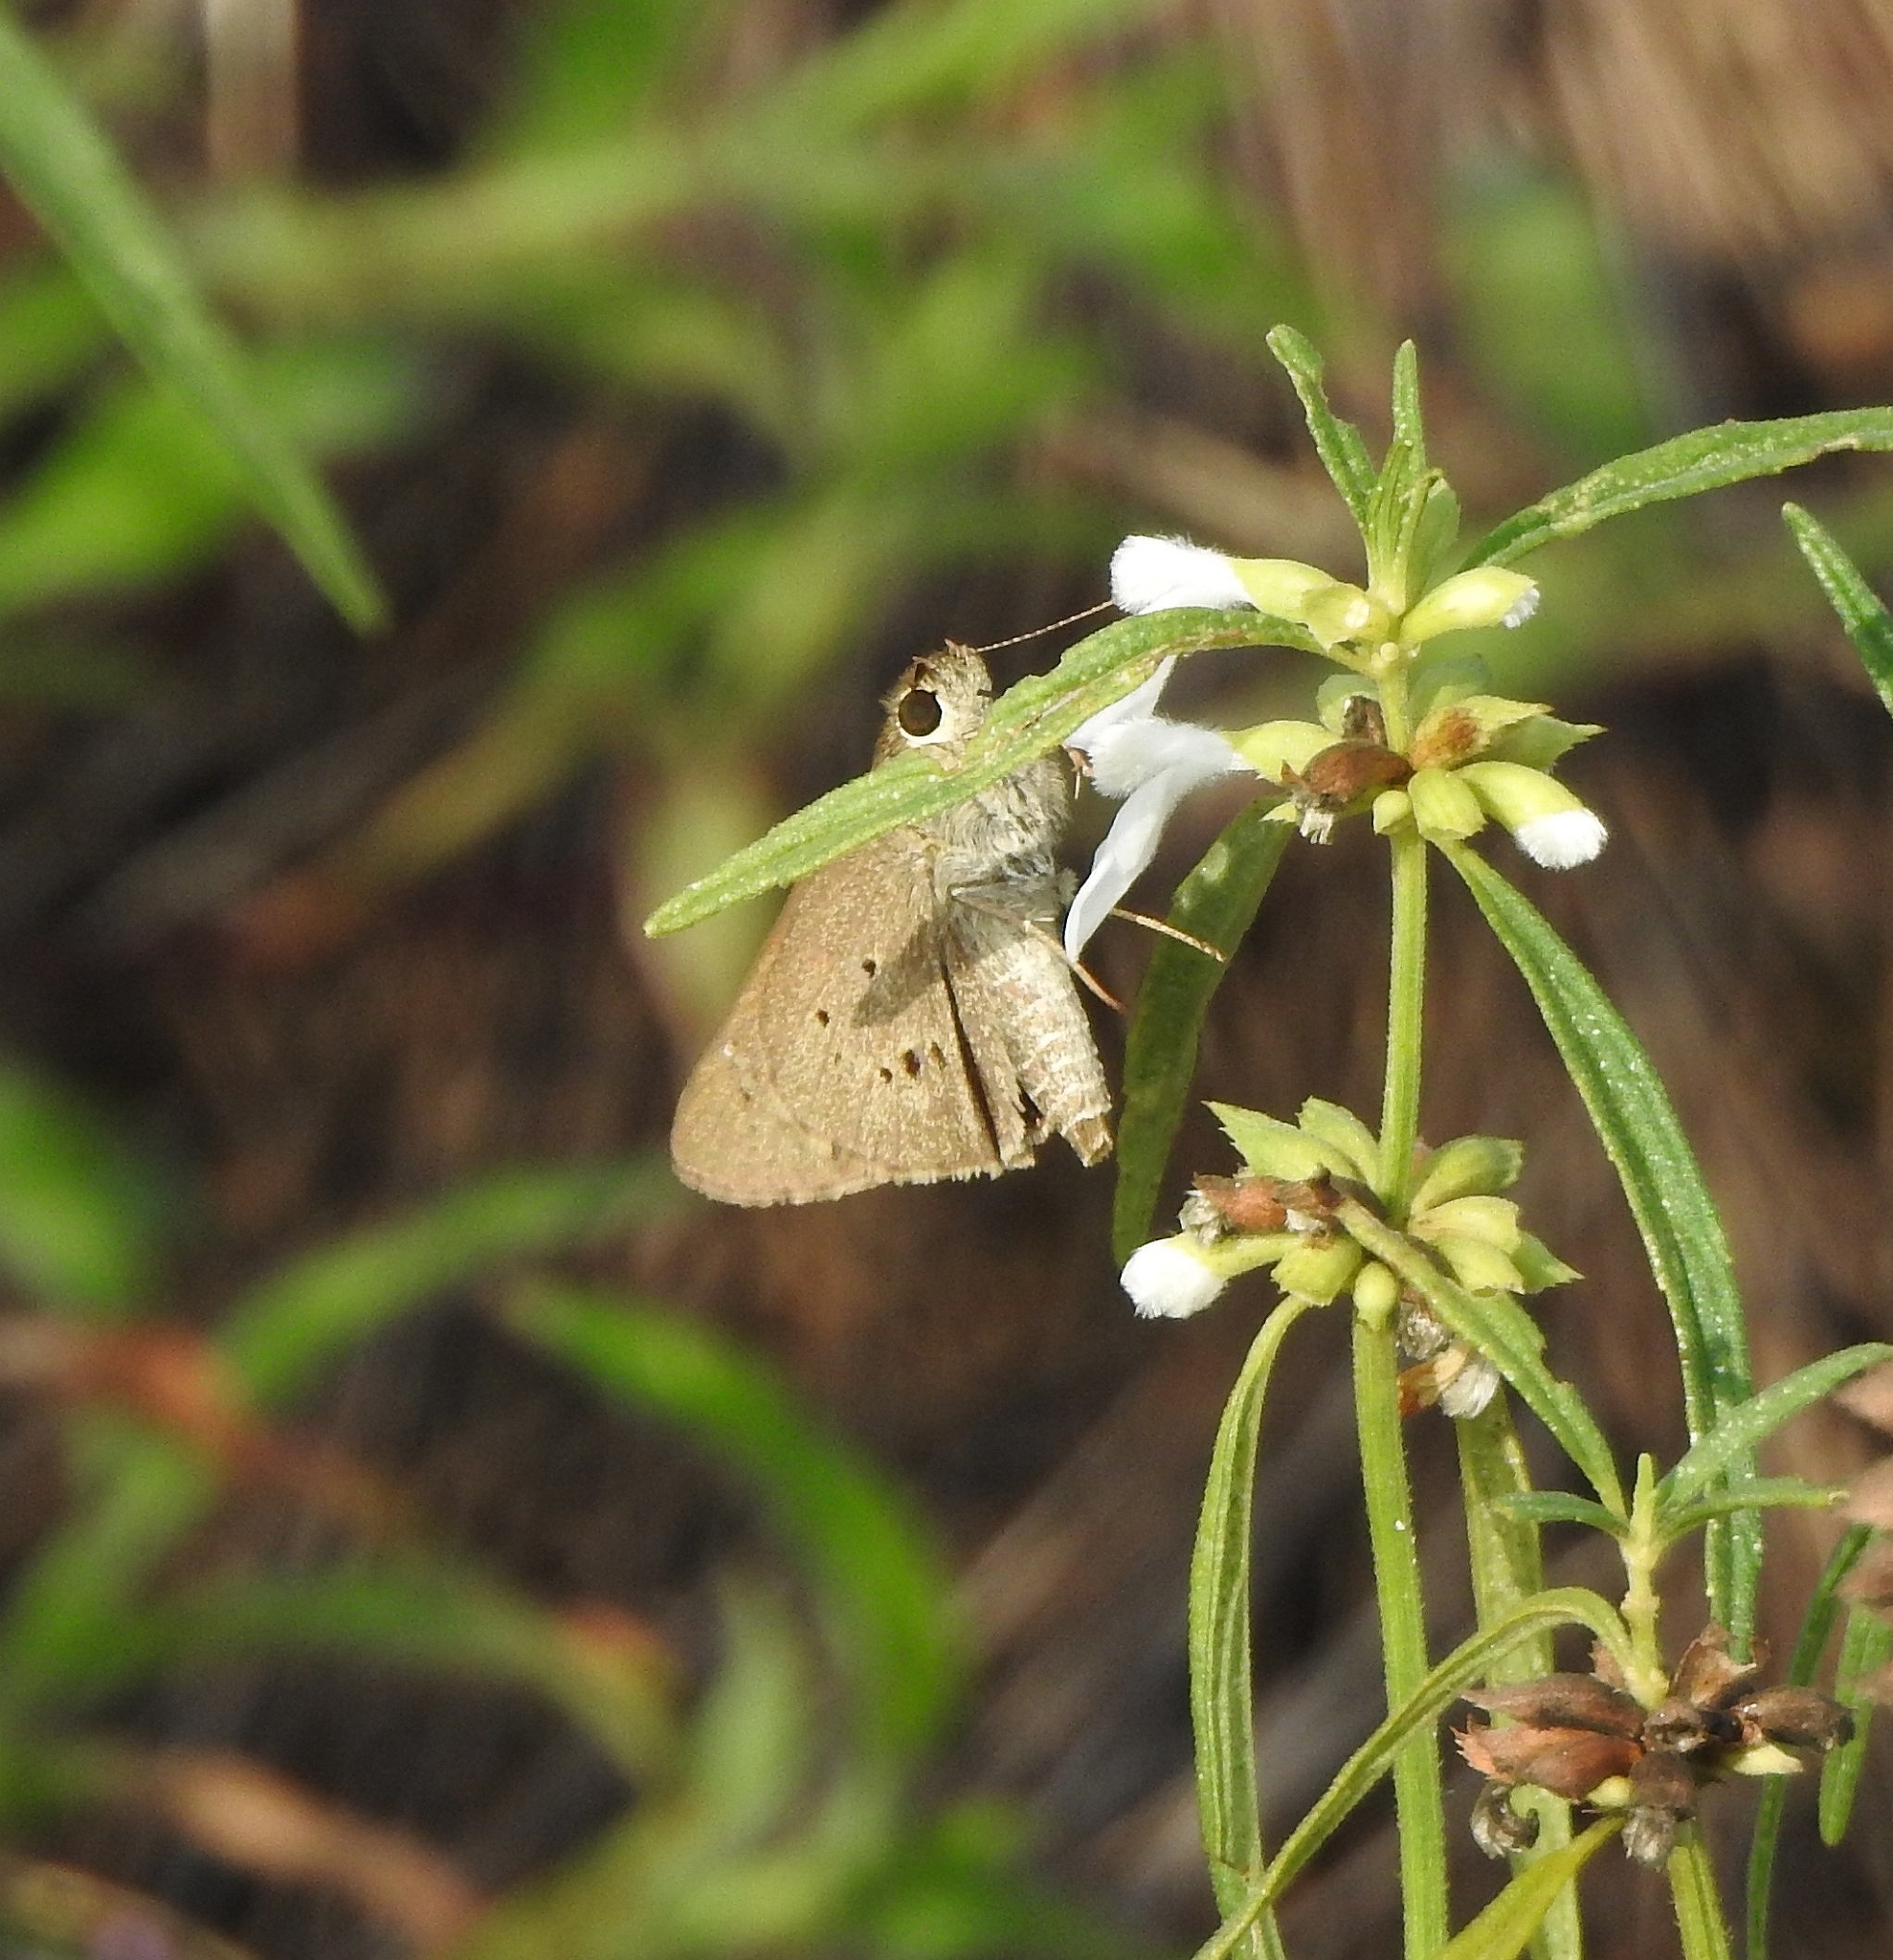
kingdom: Animalia
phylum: Arthropoda
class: Insecta
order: Lepidoptera
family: Hesperiidae
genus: Suastus
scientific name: Suastus gremius
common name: Indian palm bob
